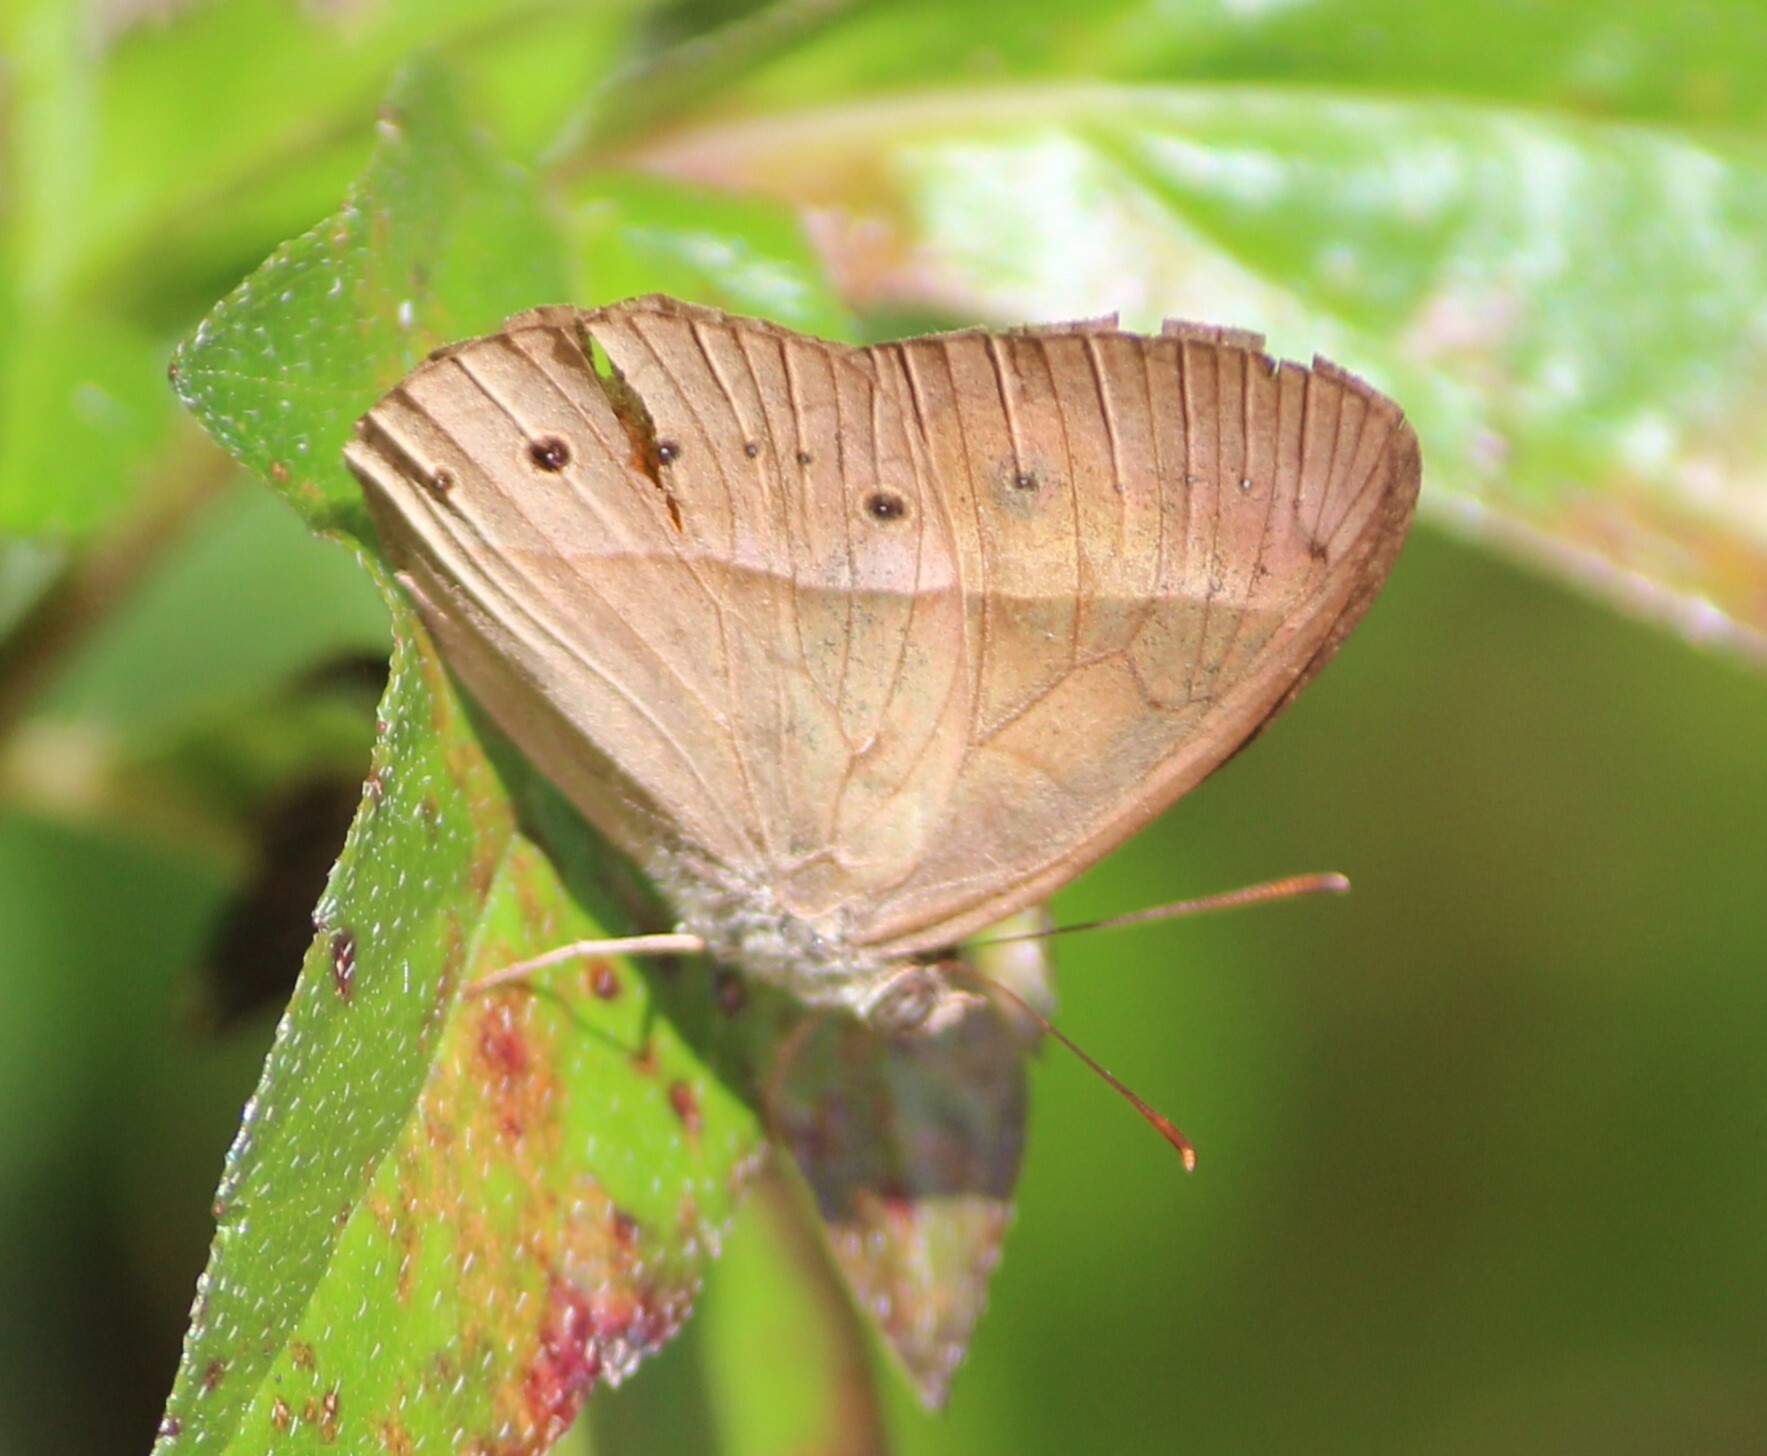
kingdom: Animalia
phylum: Arthropoda
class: Insecta
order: Lepidoptera
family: Nymphalidae
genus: Mycalesis
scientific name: Mycalesis terminus
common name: Orange bushbrown
